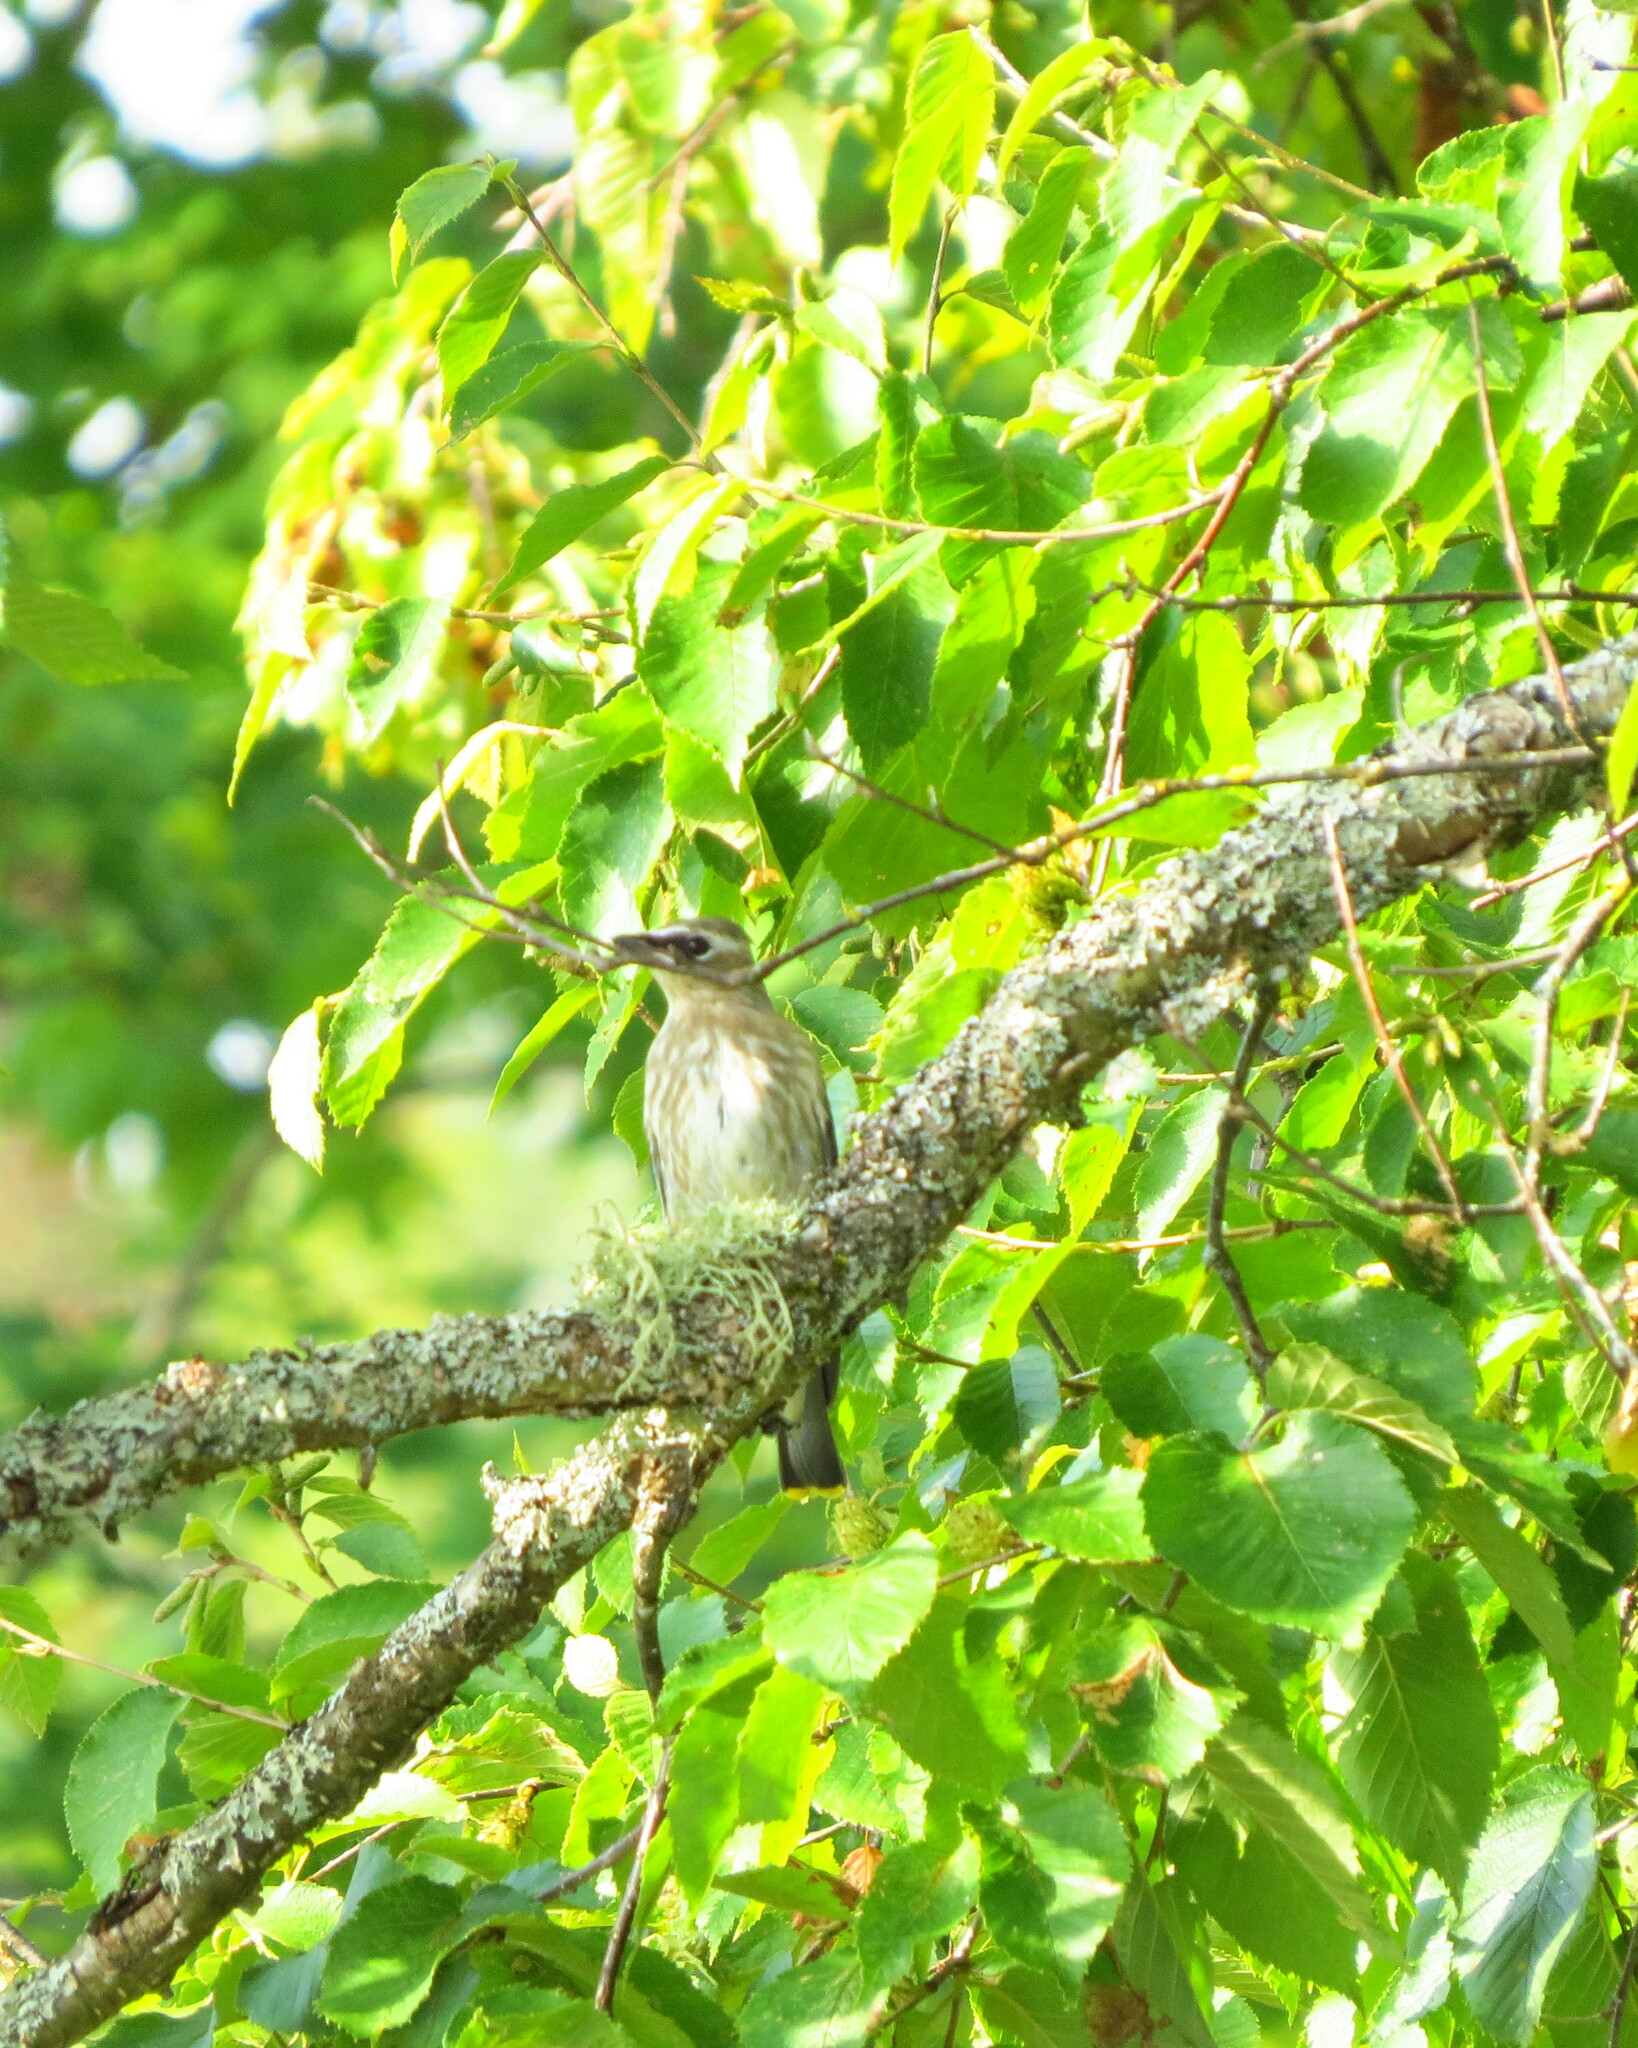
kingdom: Animalia
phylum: Chordata
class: Aves
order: Passeriformes
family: Bombycillidae
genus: Bombycilla
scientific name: Bombycilla cedrorum
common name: Cedar waxwing
